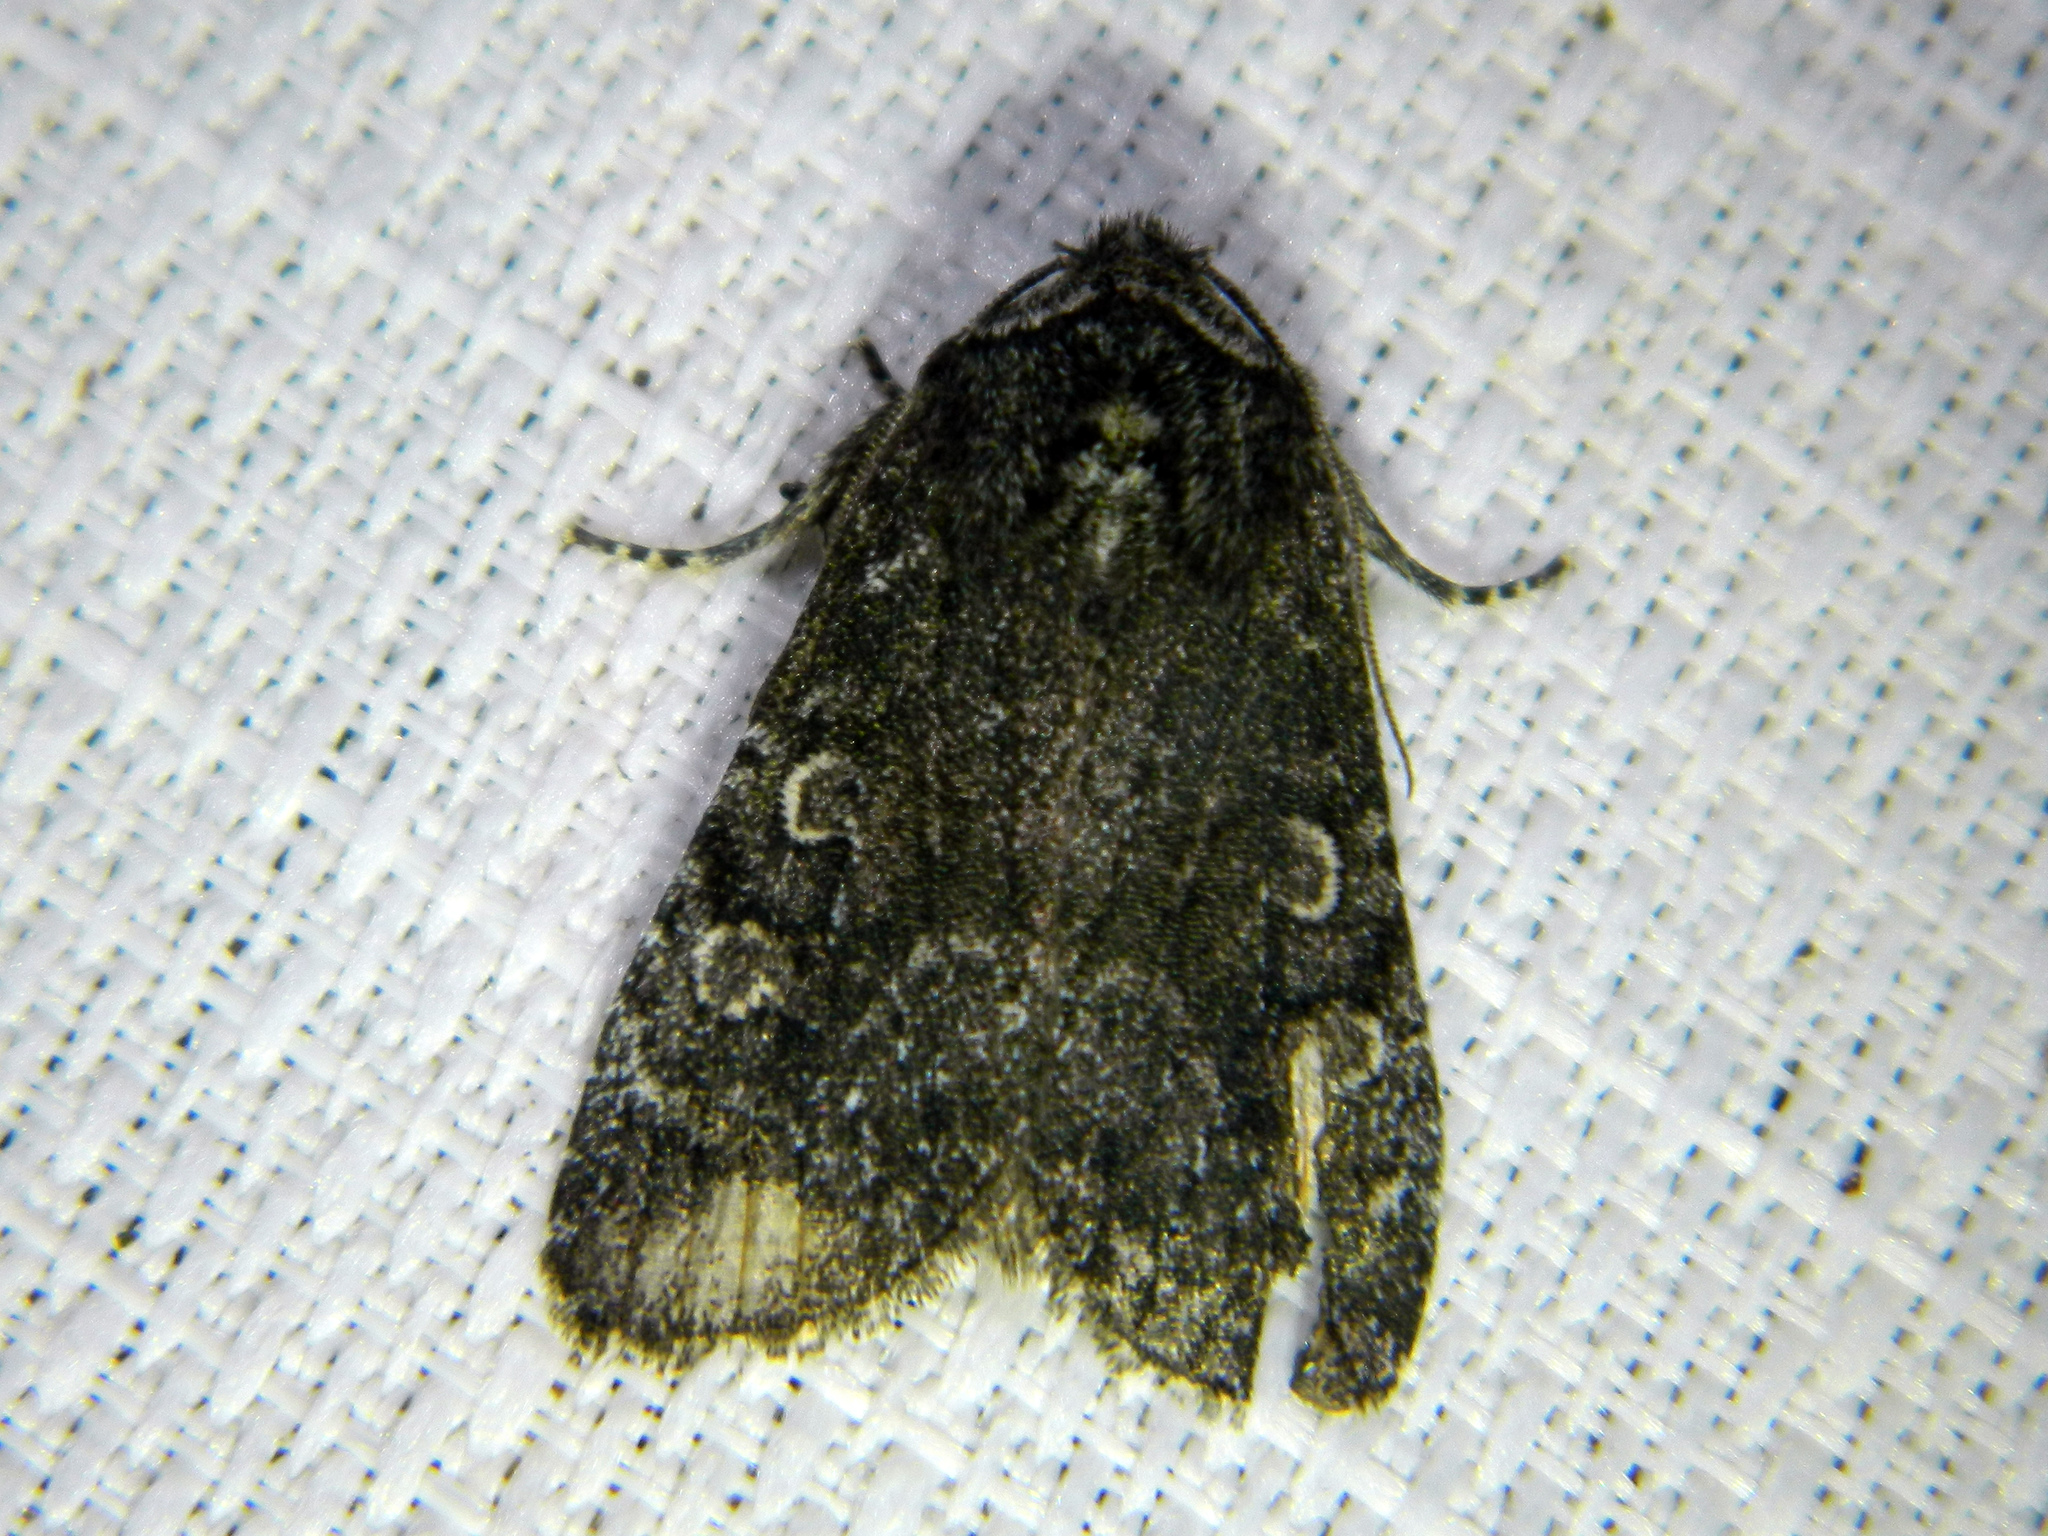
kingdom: Animalia
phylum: Arthropoda
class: Insecta
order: Lepidoptera
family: Noctuidae
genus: Egira
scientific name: Egira dolosa
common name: Lined black aspen cat.
